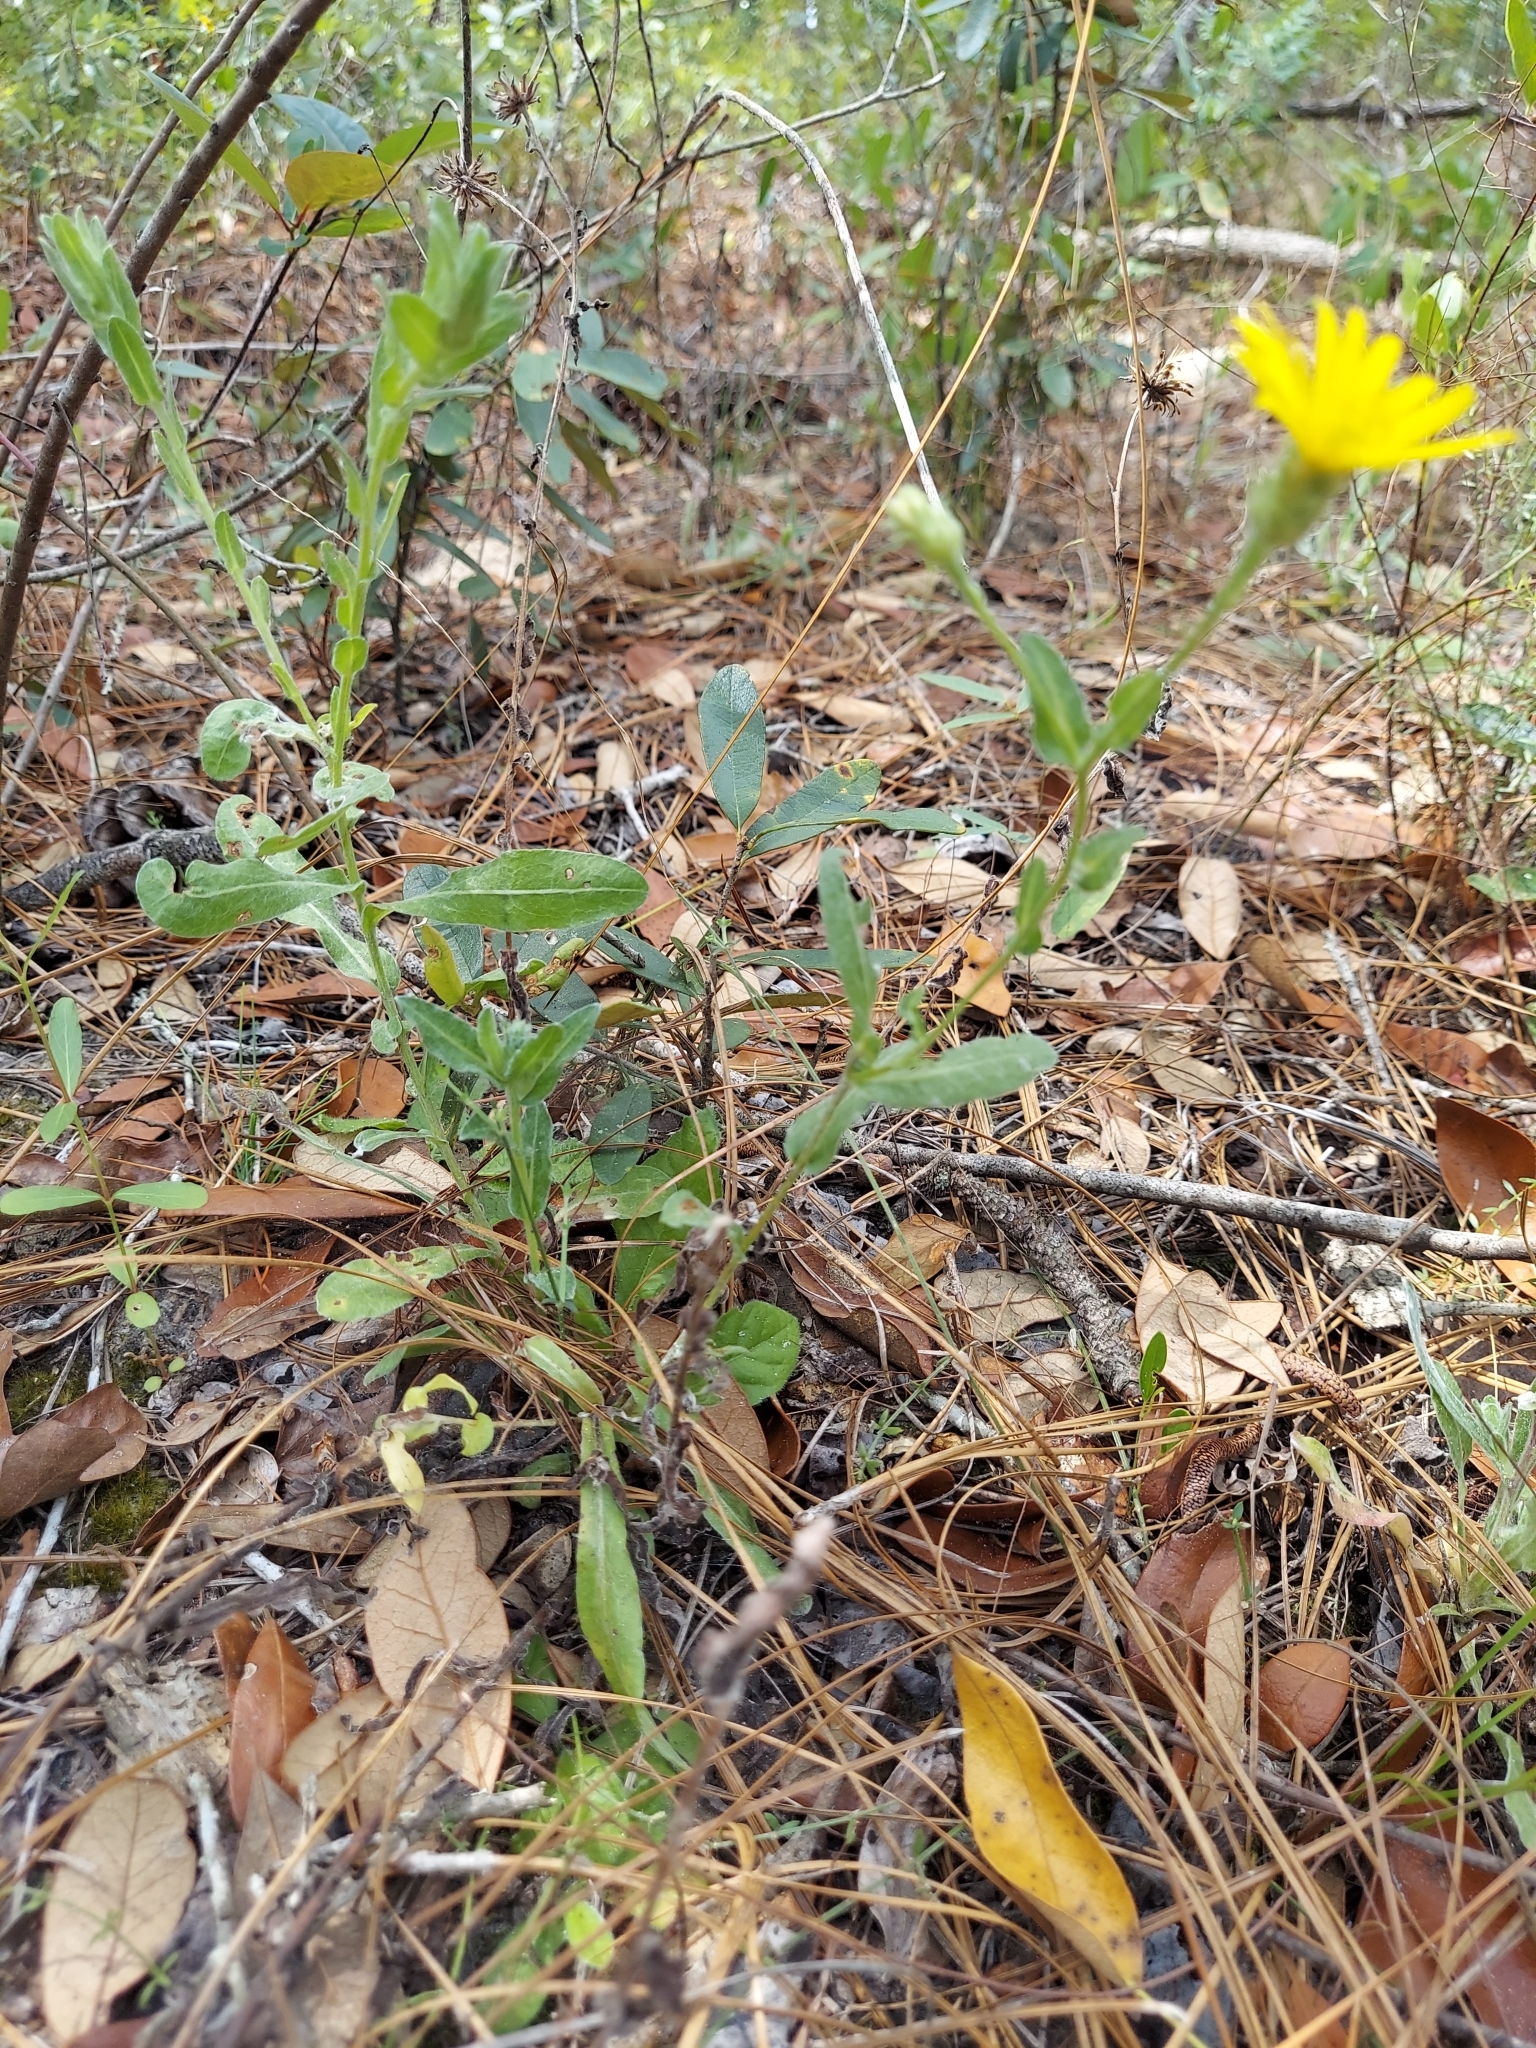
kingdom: Plantae
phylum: Tracheophyta
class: Magnoliopsida
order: Asterales
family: Asteraceae
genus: Chrysopsis
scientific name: Chrysopsis gossypina
